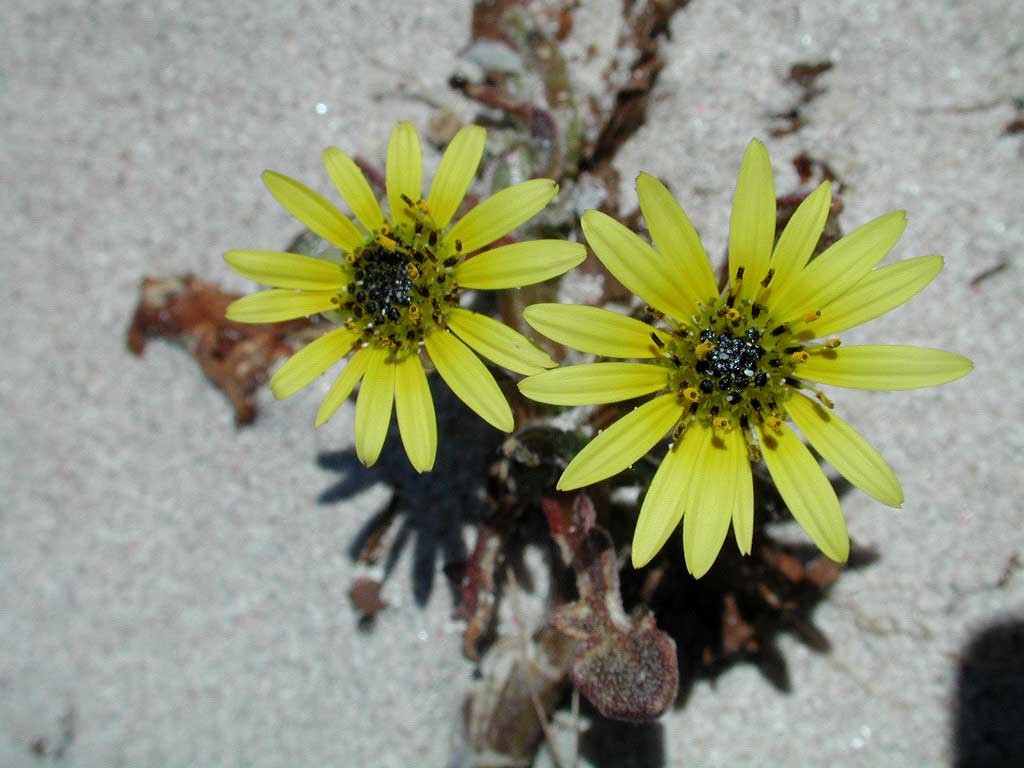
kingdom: Plantae
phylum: Tracheophyta
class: Magnoliopsida
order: Asterales
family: Asteraceae
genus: Arctotheca
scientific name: Arctotheca calendula
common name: Capeweed
